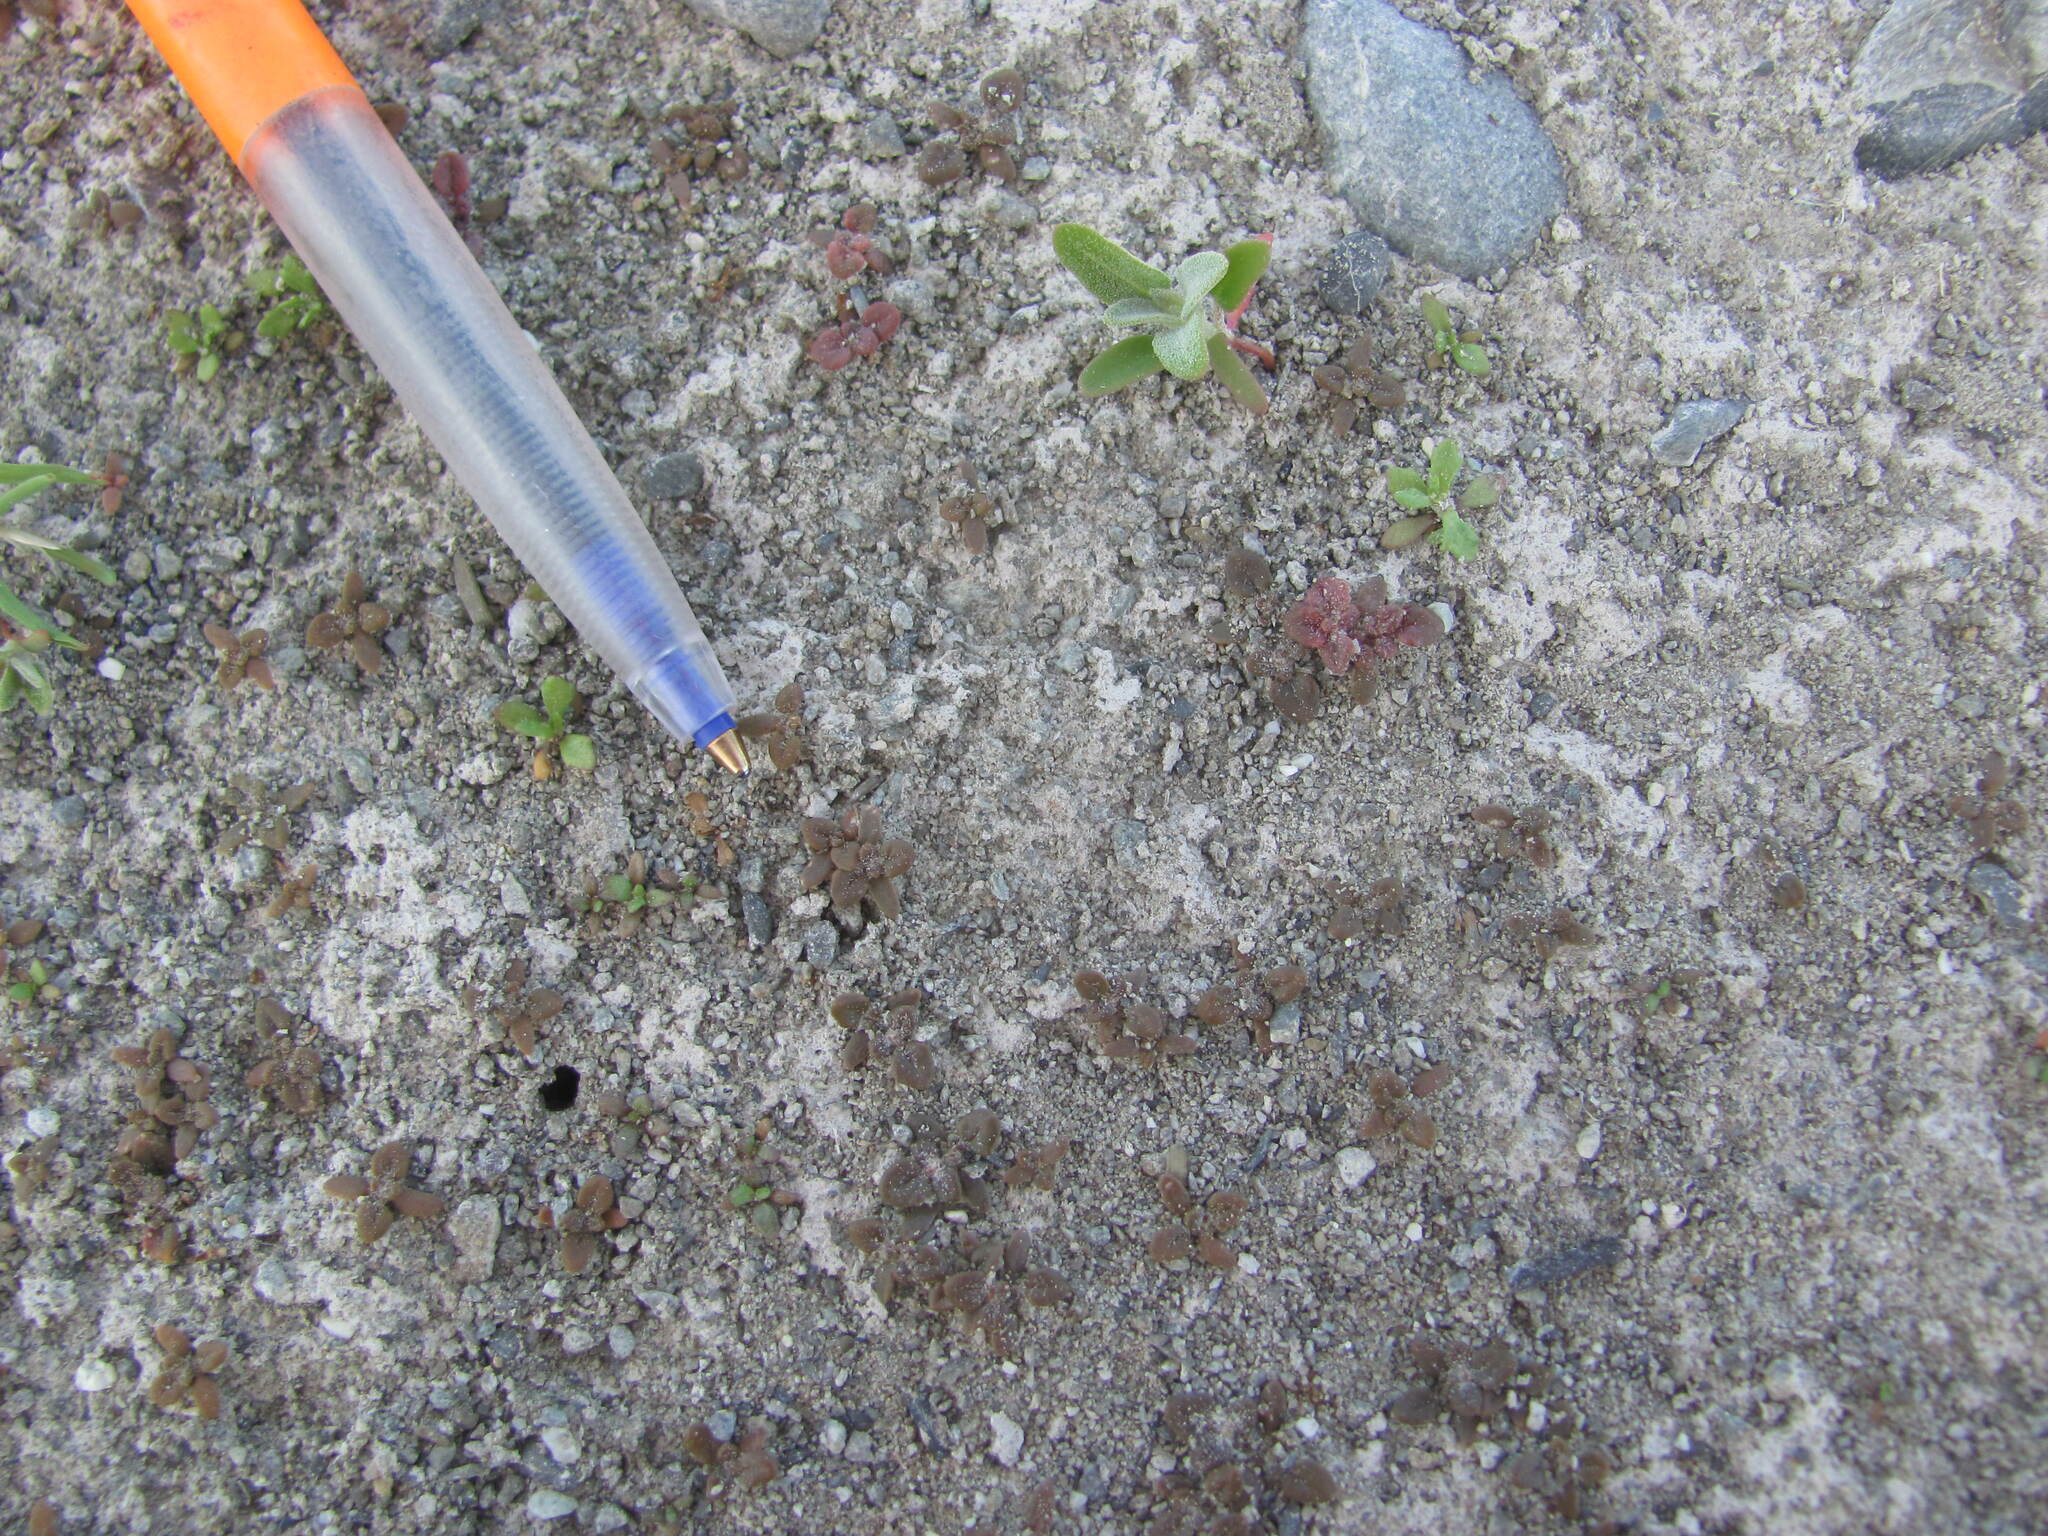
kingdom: Plantae
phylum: Tracheophyta
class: Magnoliopsida
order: Caryophyllales
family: Amaranthaceae
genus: Dysphania
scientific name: Dysphania pusilla
